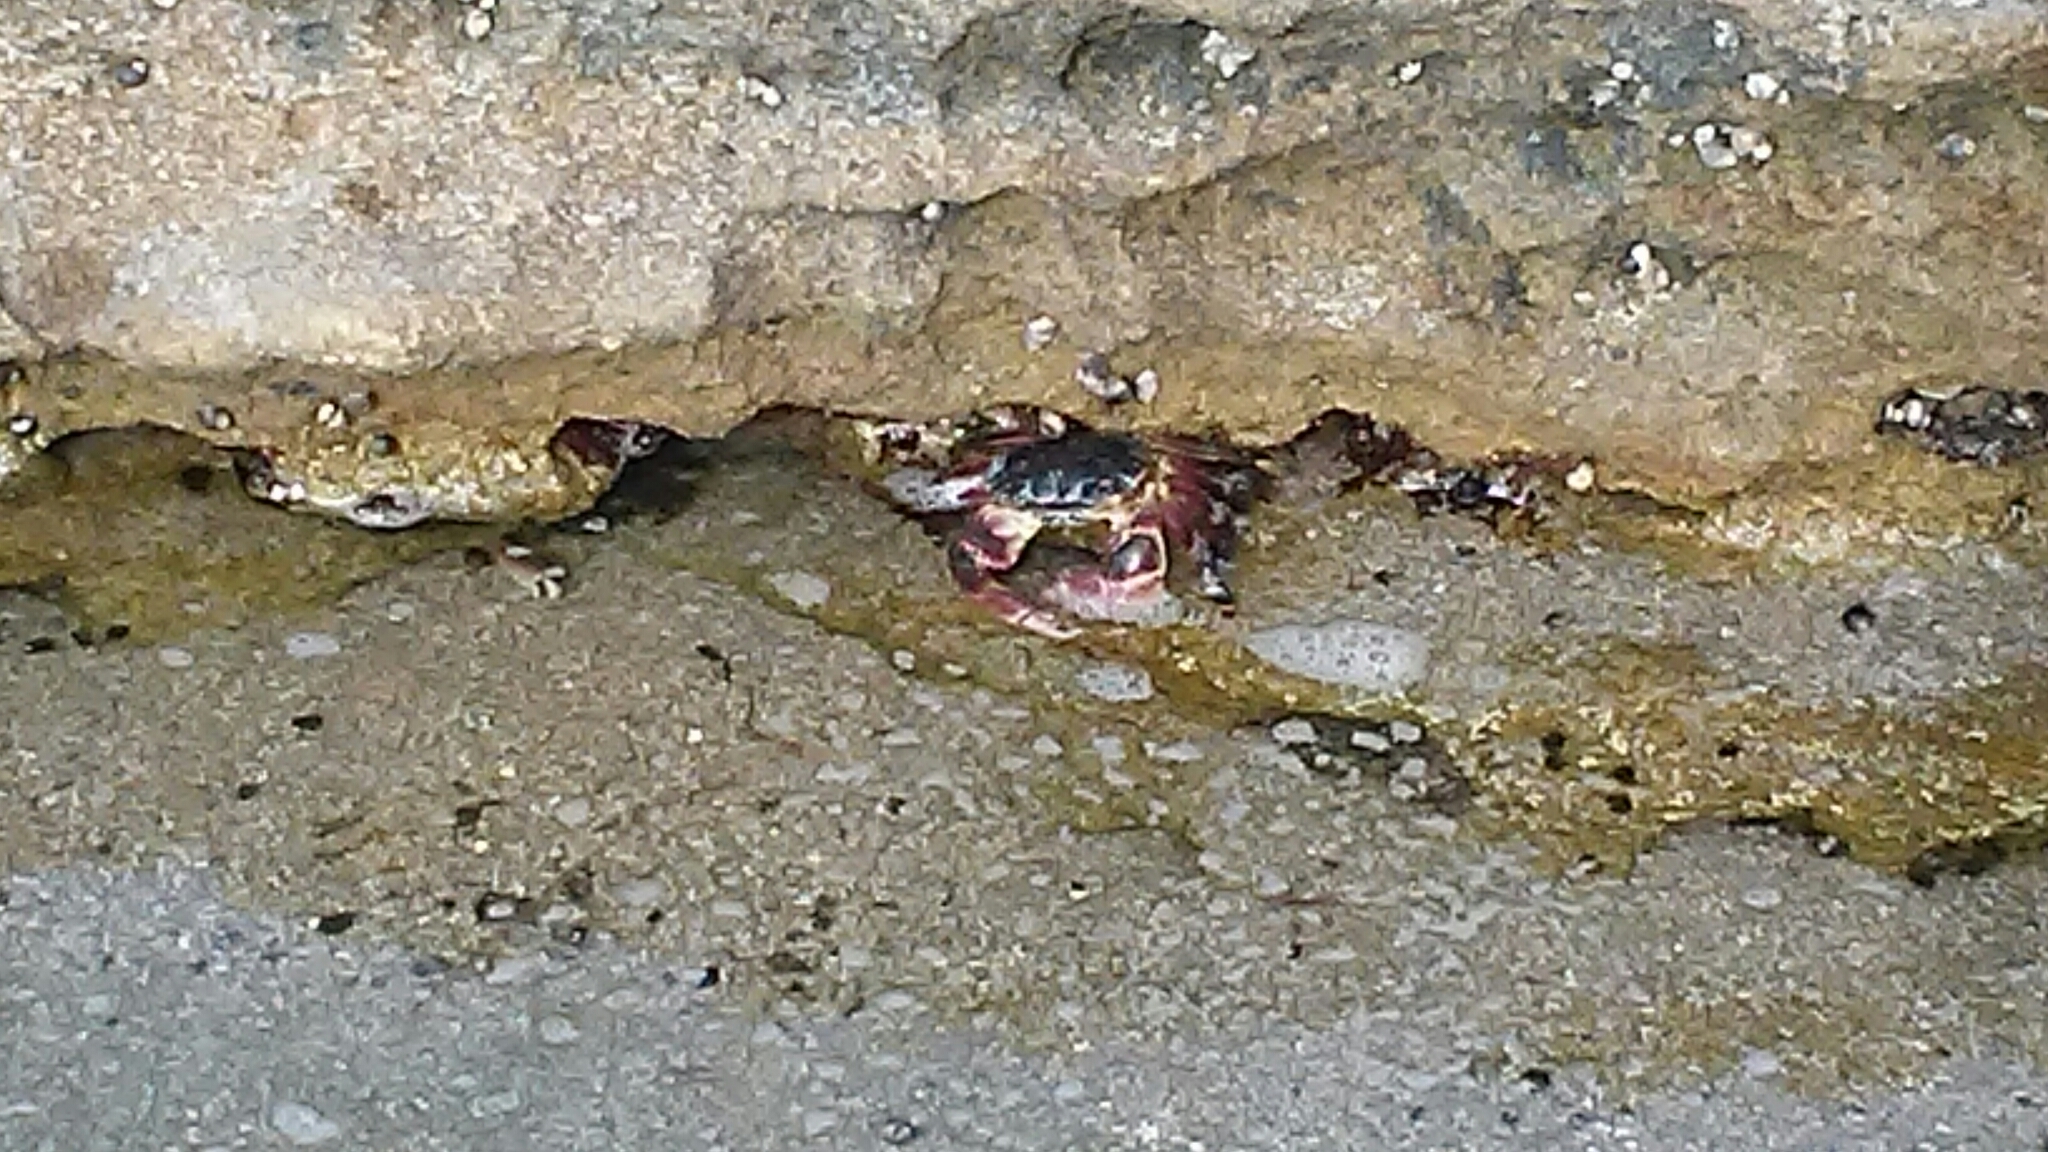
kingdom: Animalia
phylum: Arthropoda
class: Malacostraca
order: Decapoda
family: Grapsidae
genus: Pachygrapsus
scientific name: Pachygrapsus crassipes
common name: Striped shore crab
